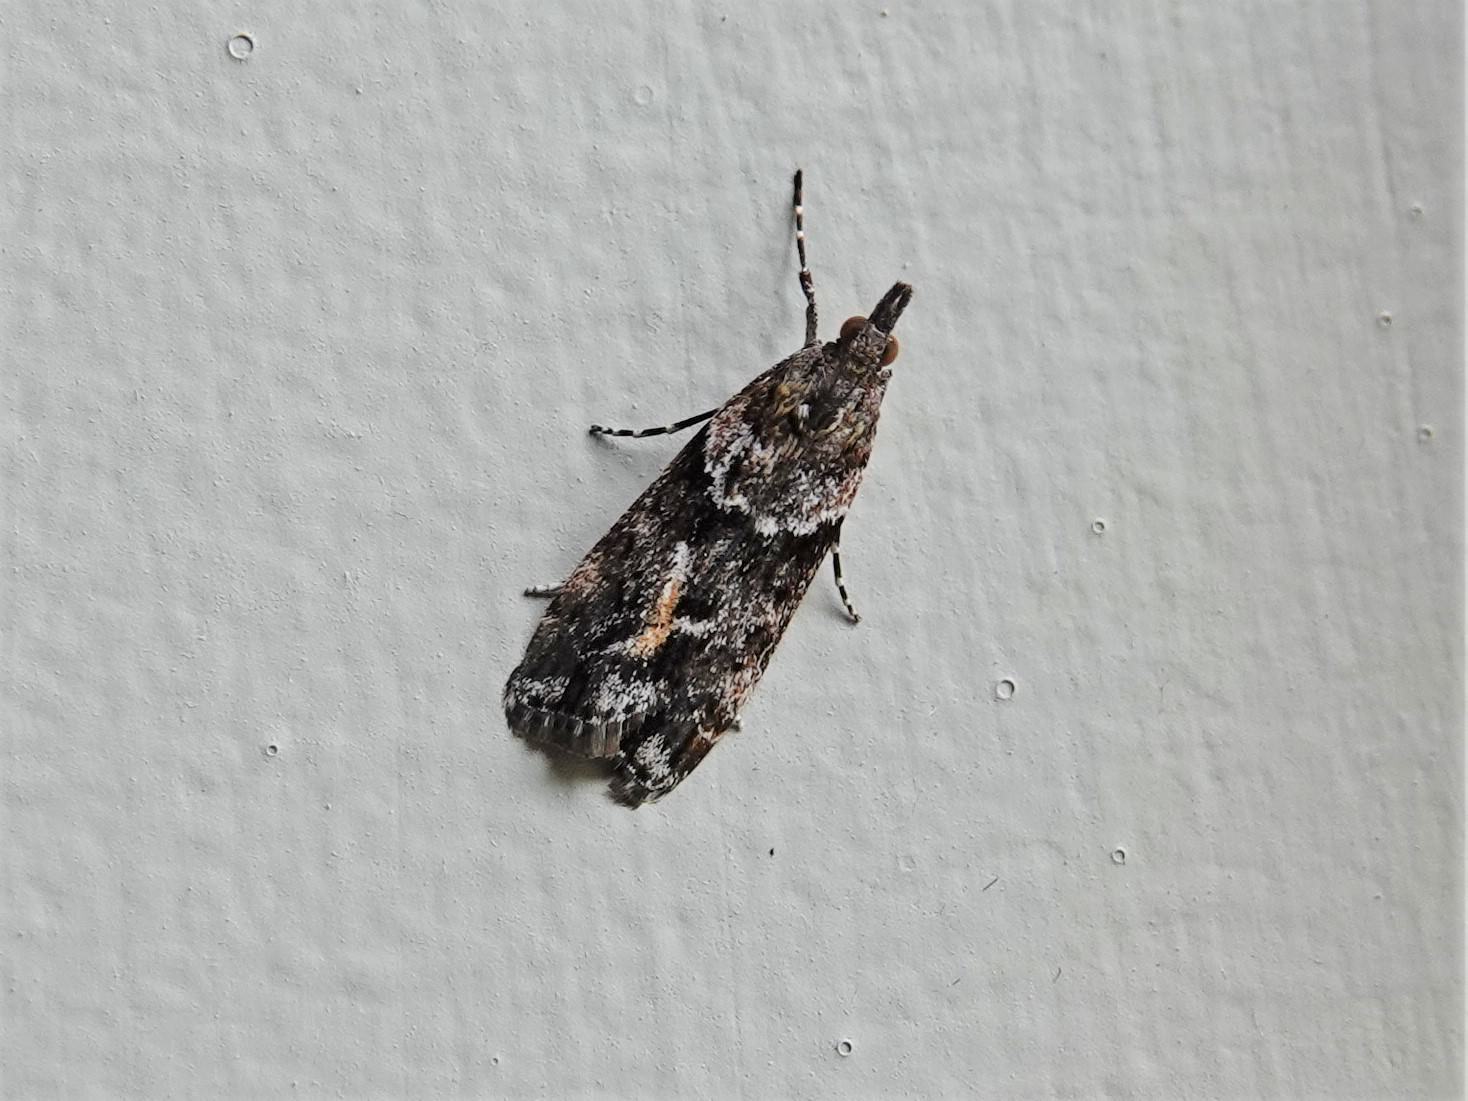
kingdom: Animalia
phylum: Arthropoda
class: Insecta
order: Lepidoptera
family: Crambidae
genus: Eudonia
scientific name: Eudonia submarginalis
